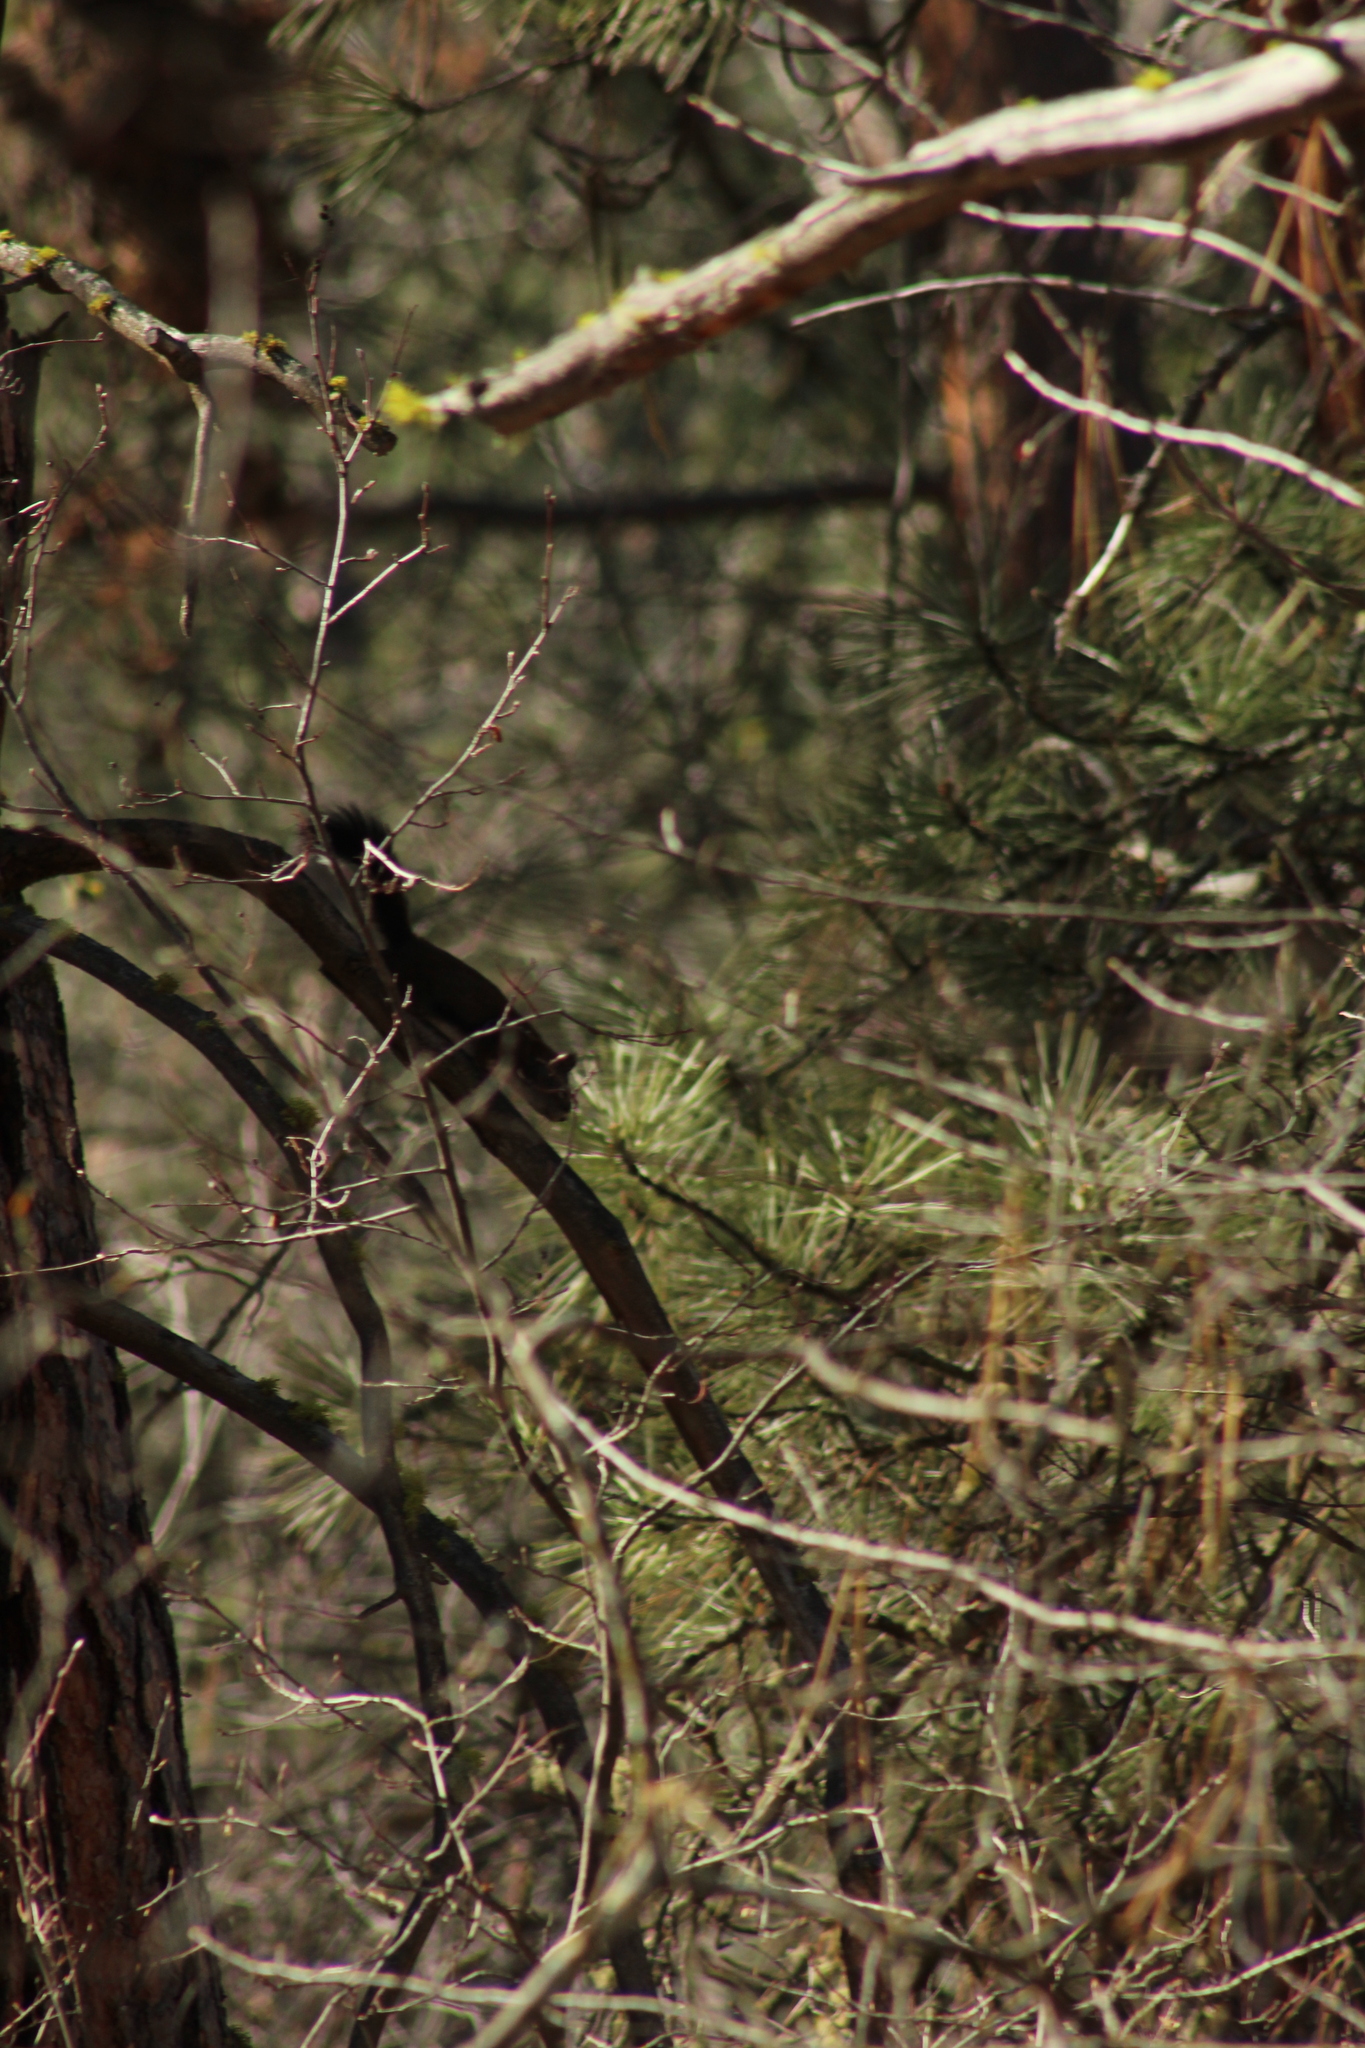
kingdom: Animalia
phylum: Chordata
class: Mammalia
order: Rodentia
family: Sciuridae
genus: Tamiasciurus
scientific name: Tamiasciurus hudsonicus
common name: Red squirrel
